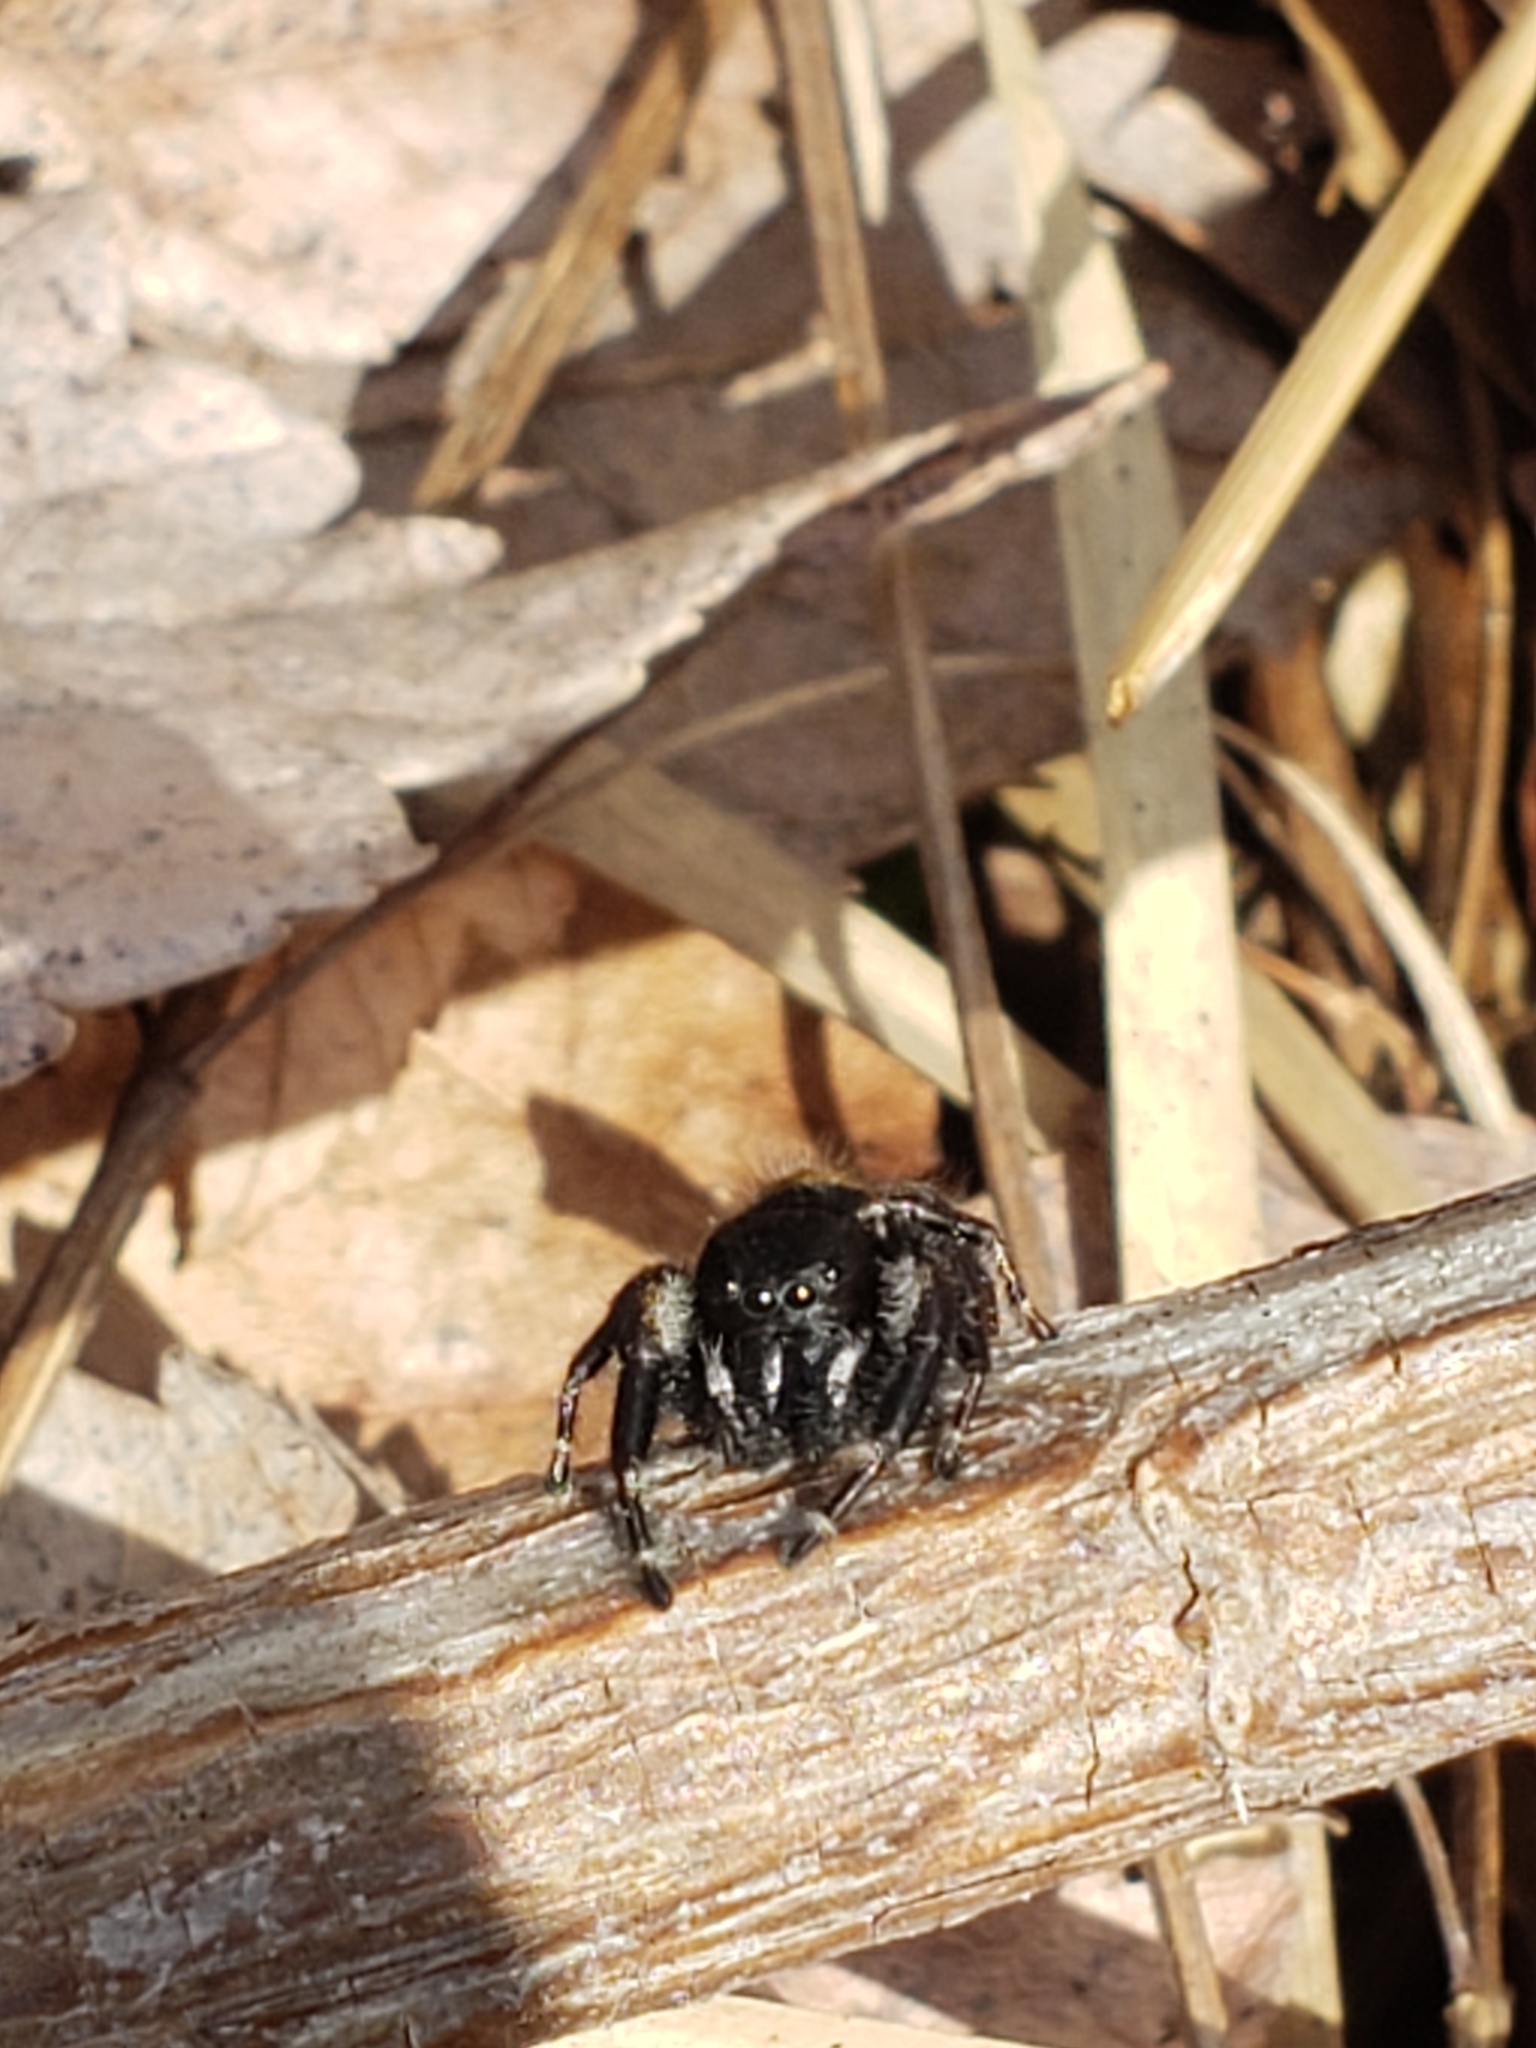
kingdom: Animalia
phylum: Arthropoda
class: Arachnida
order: Araneae
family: Salticidae
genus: Phidippus
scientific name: Phidippus princeps
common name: Grayish jumping spider
